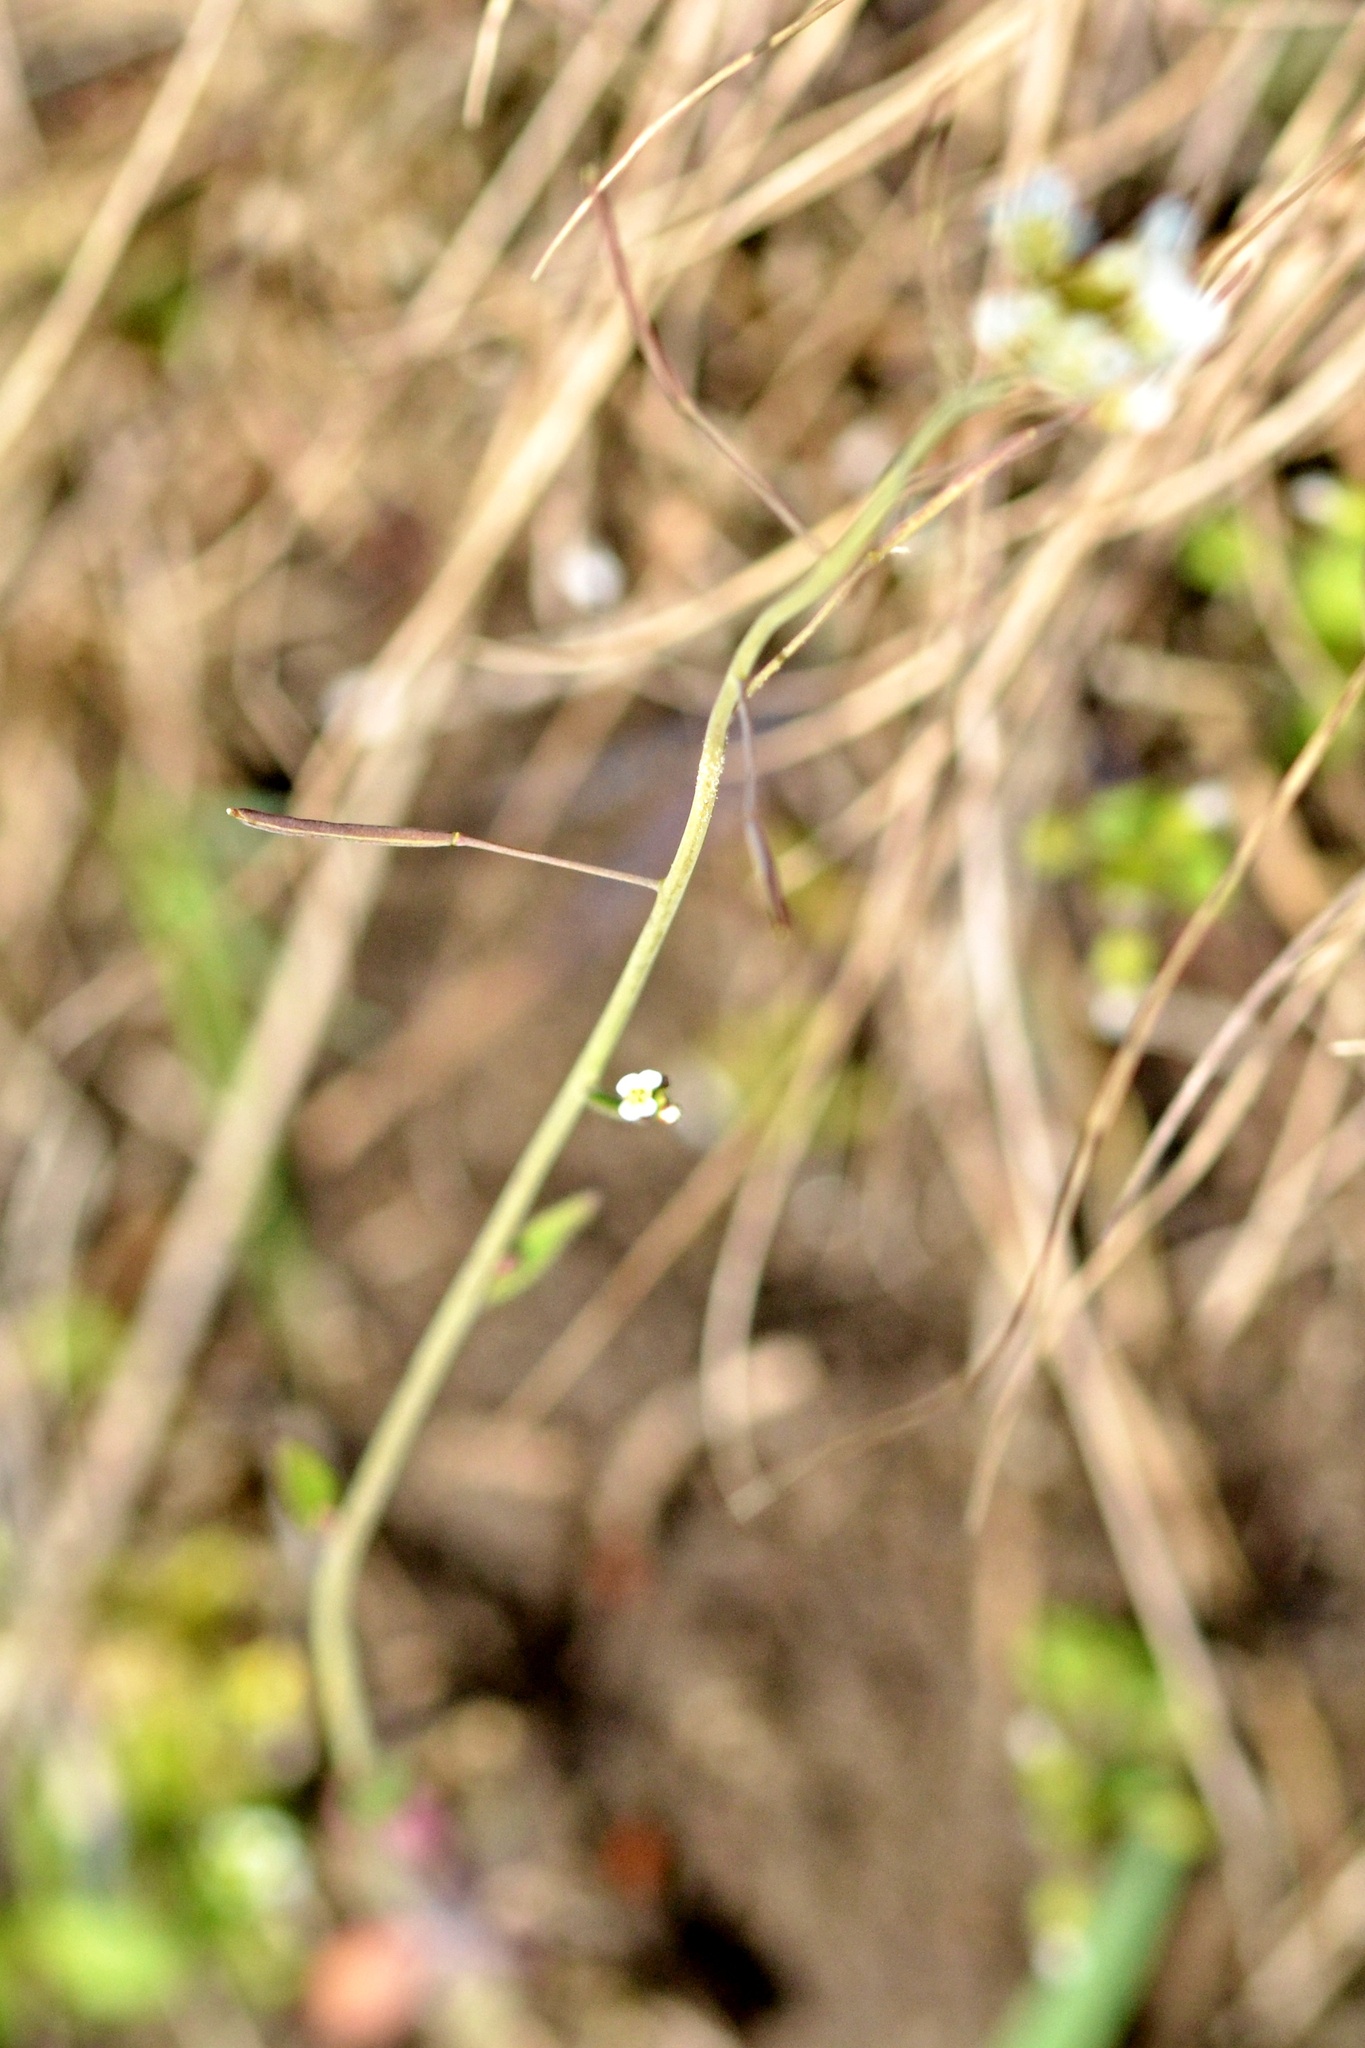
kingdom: Plantae
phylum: Tracheophyta
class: Magnoliopsida
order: Brassicales
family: Brassicaceae
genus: Arabidopsis
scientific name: Arabidopsis thaliana
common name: Thale cress
